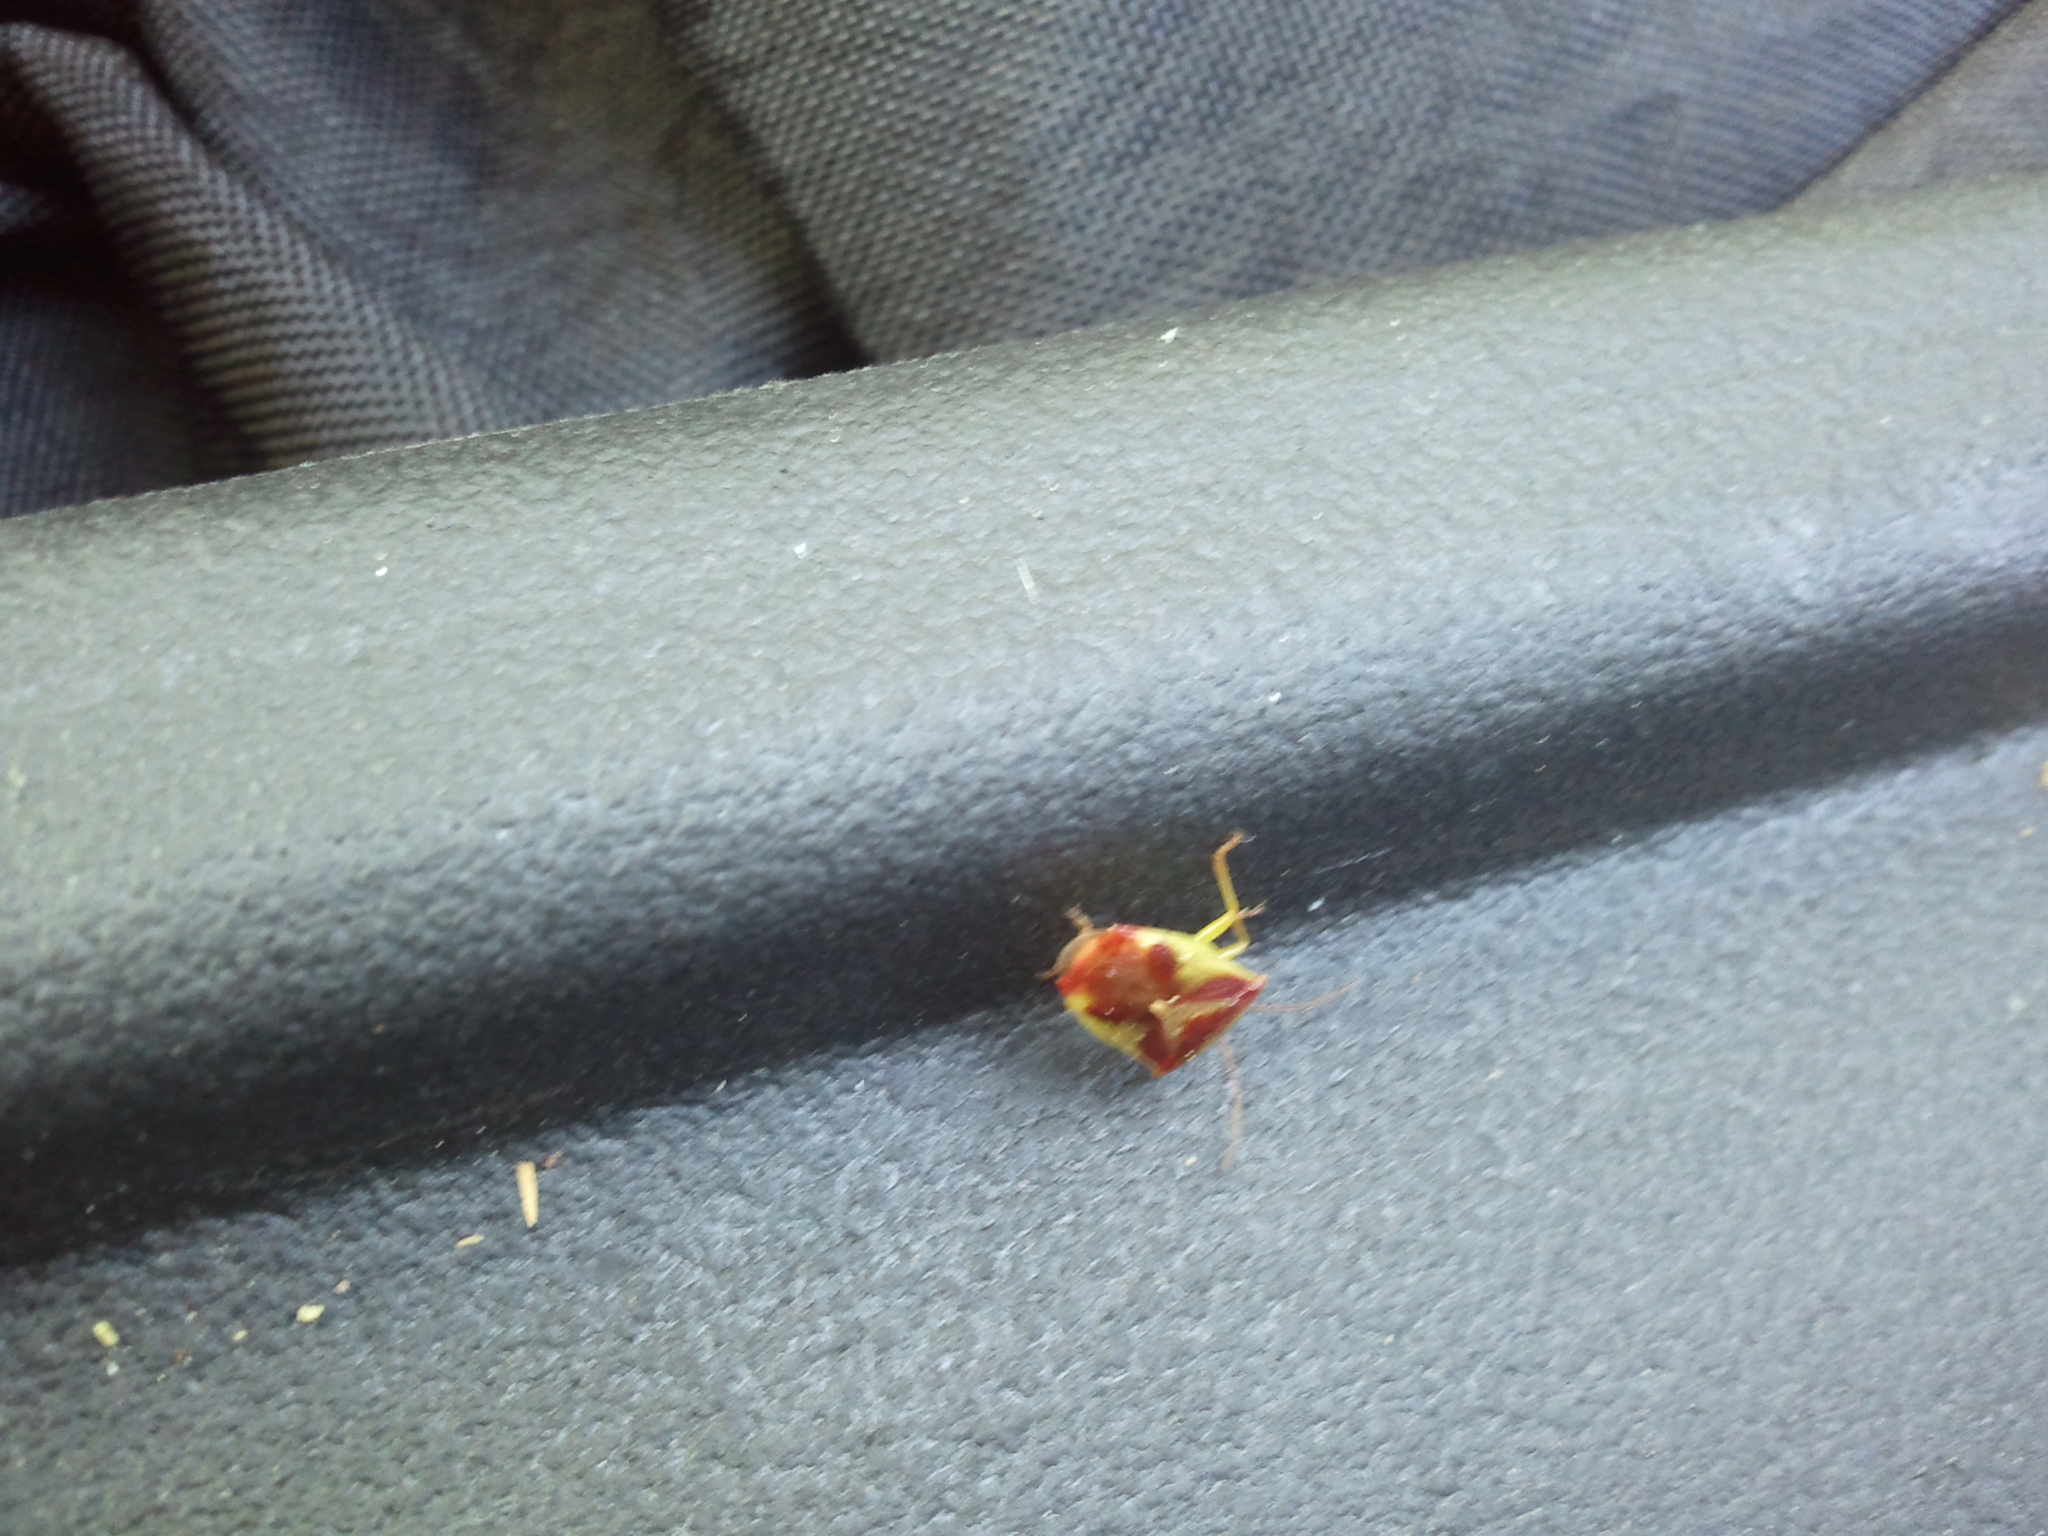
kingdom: Animalia
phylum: Arthropoda
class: Insecta
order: Hemiptera
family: Acanthosomatidae
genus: Elasmostethus
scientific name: Elasmostethus cruciatus
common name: Red-cross shield bug
